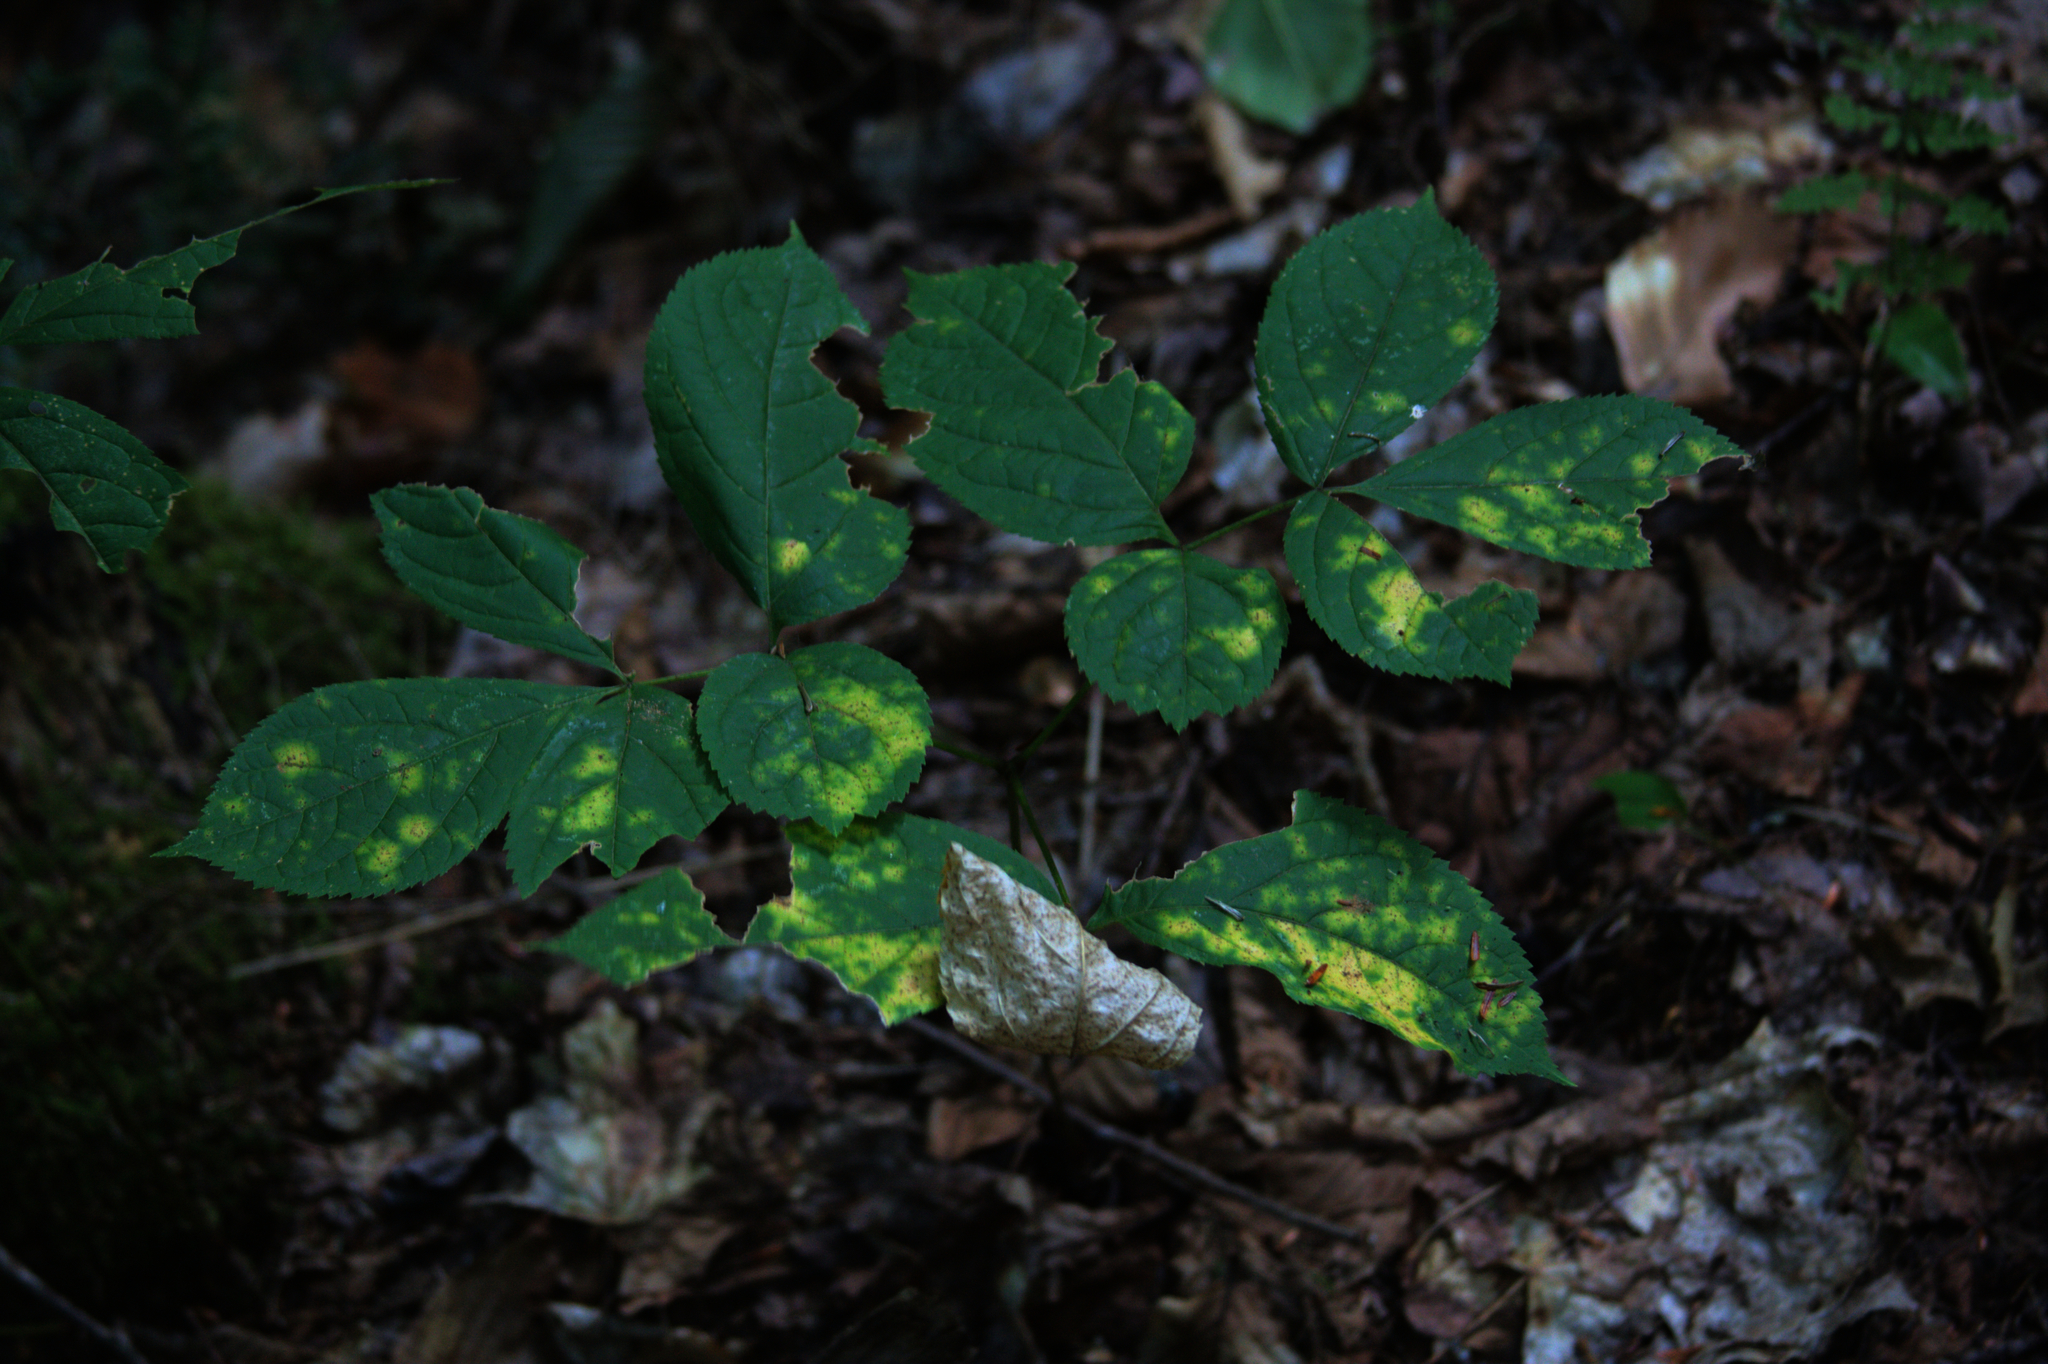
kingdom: Plantae
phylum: Tracheophyta
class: Magnoliopsida
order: Apiales
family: Araliaceae
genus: Aralia
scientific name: Aralia nudicaulis
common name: Wild sarsaparilla
